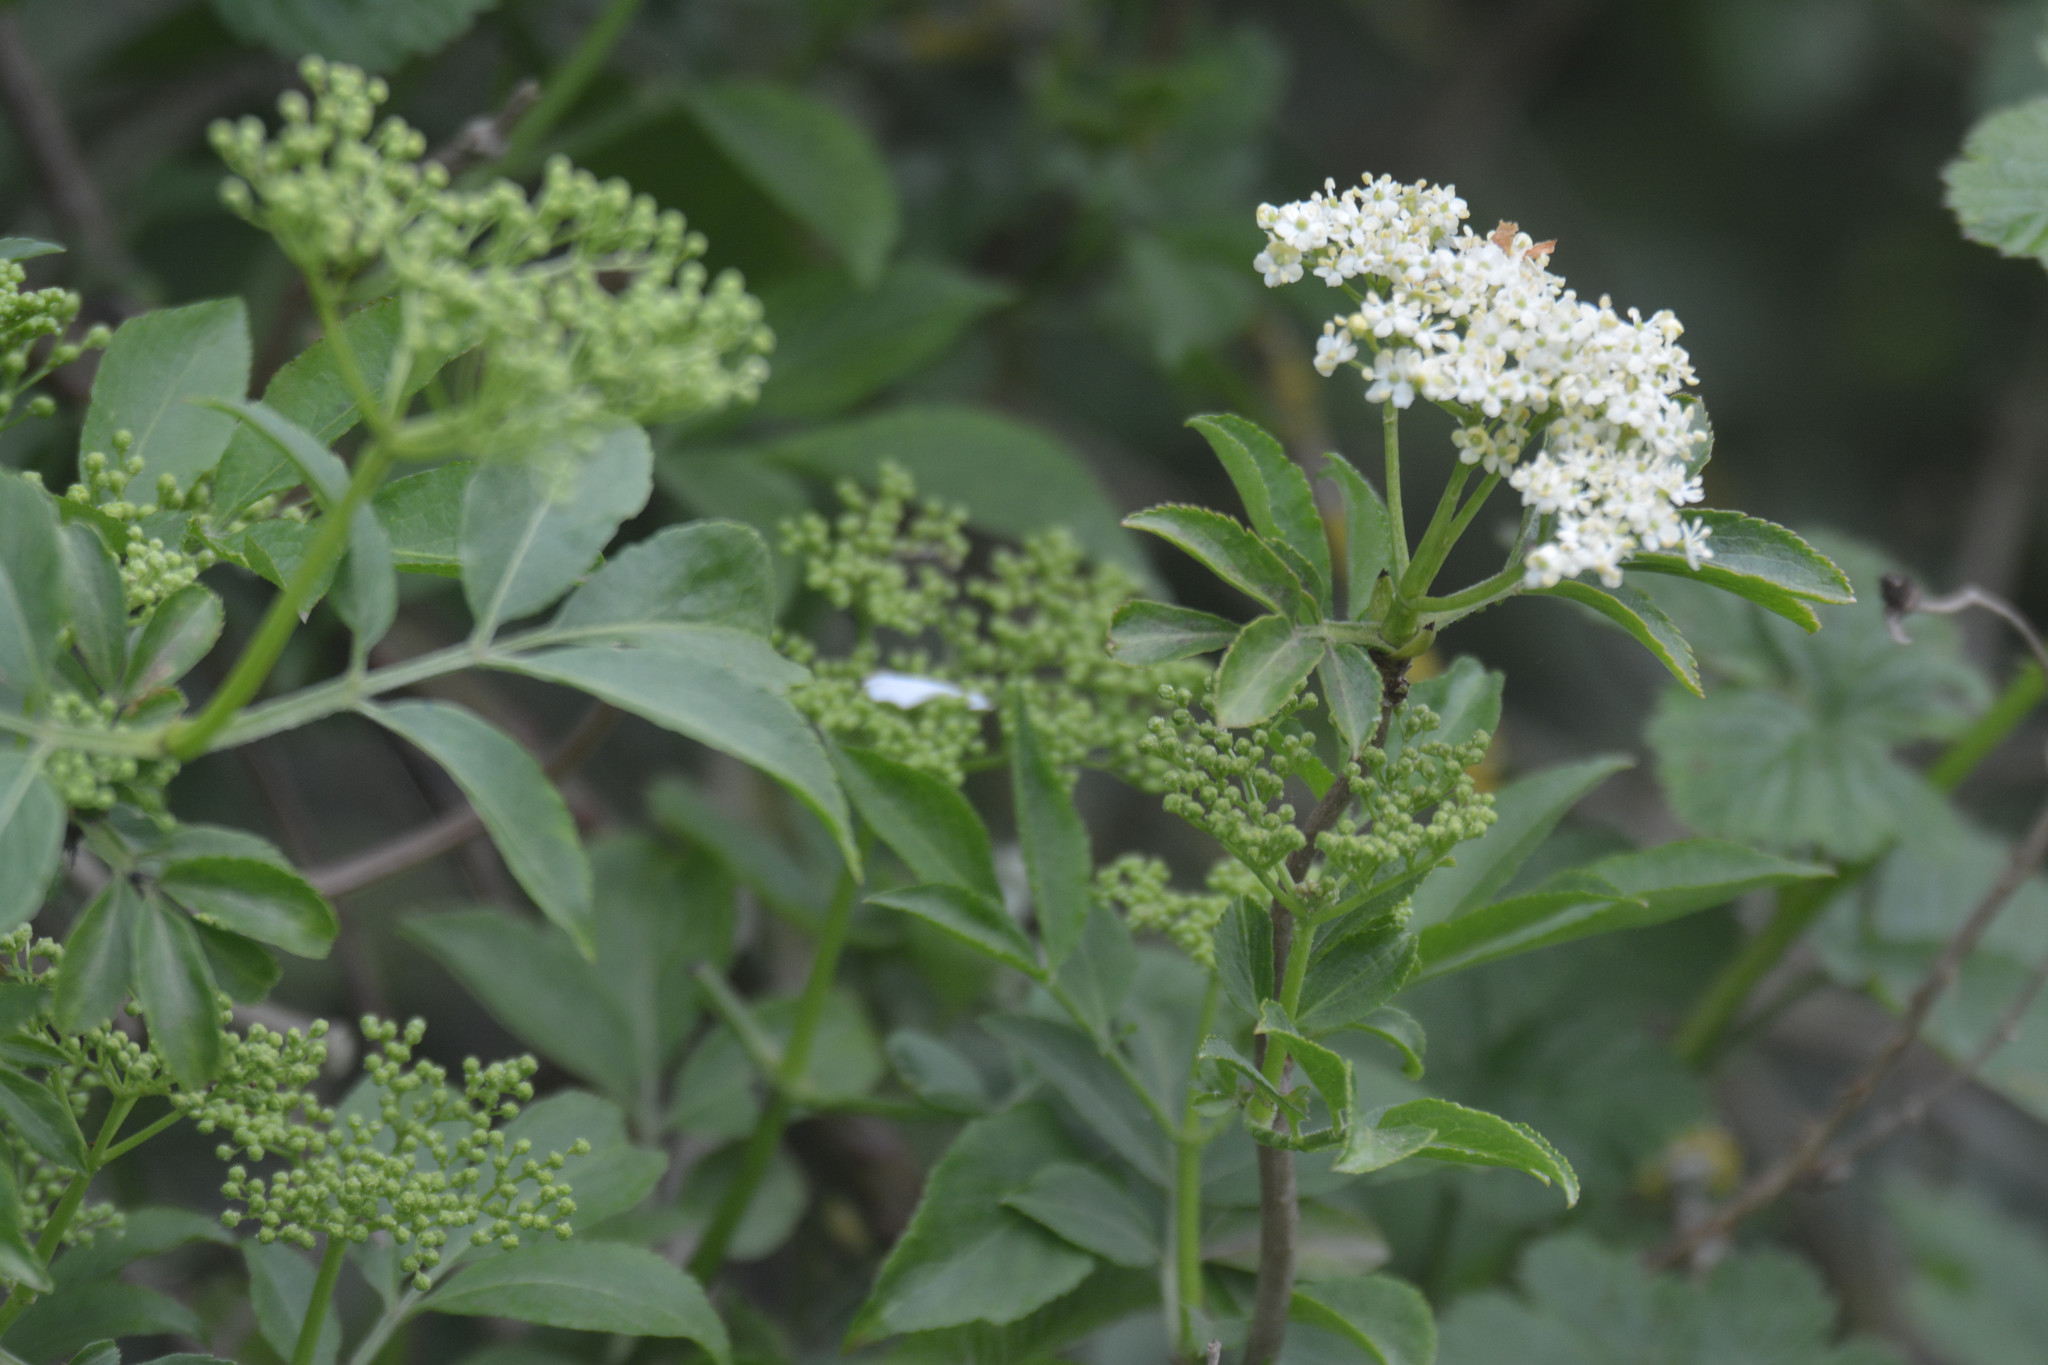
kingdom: Plantae
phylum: Tracheophyta
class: Magnoliopsida
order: Dipsacales
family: Viburnaceae
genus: Sambucus
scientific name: Sambucus nigra
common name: Elder
